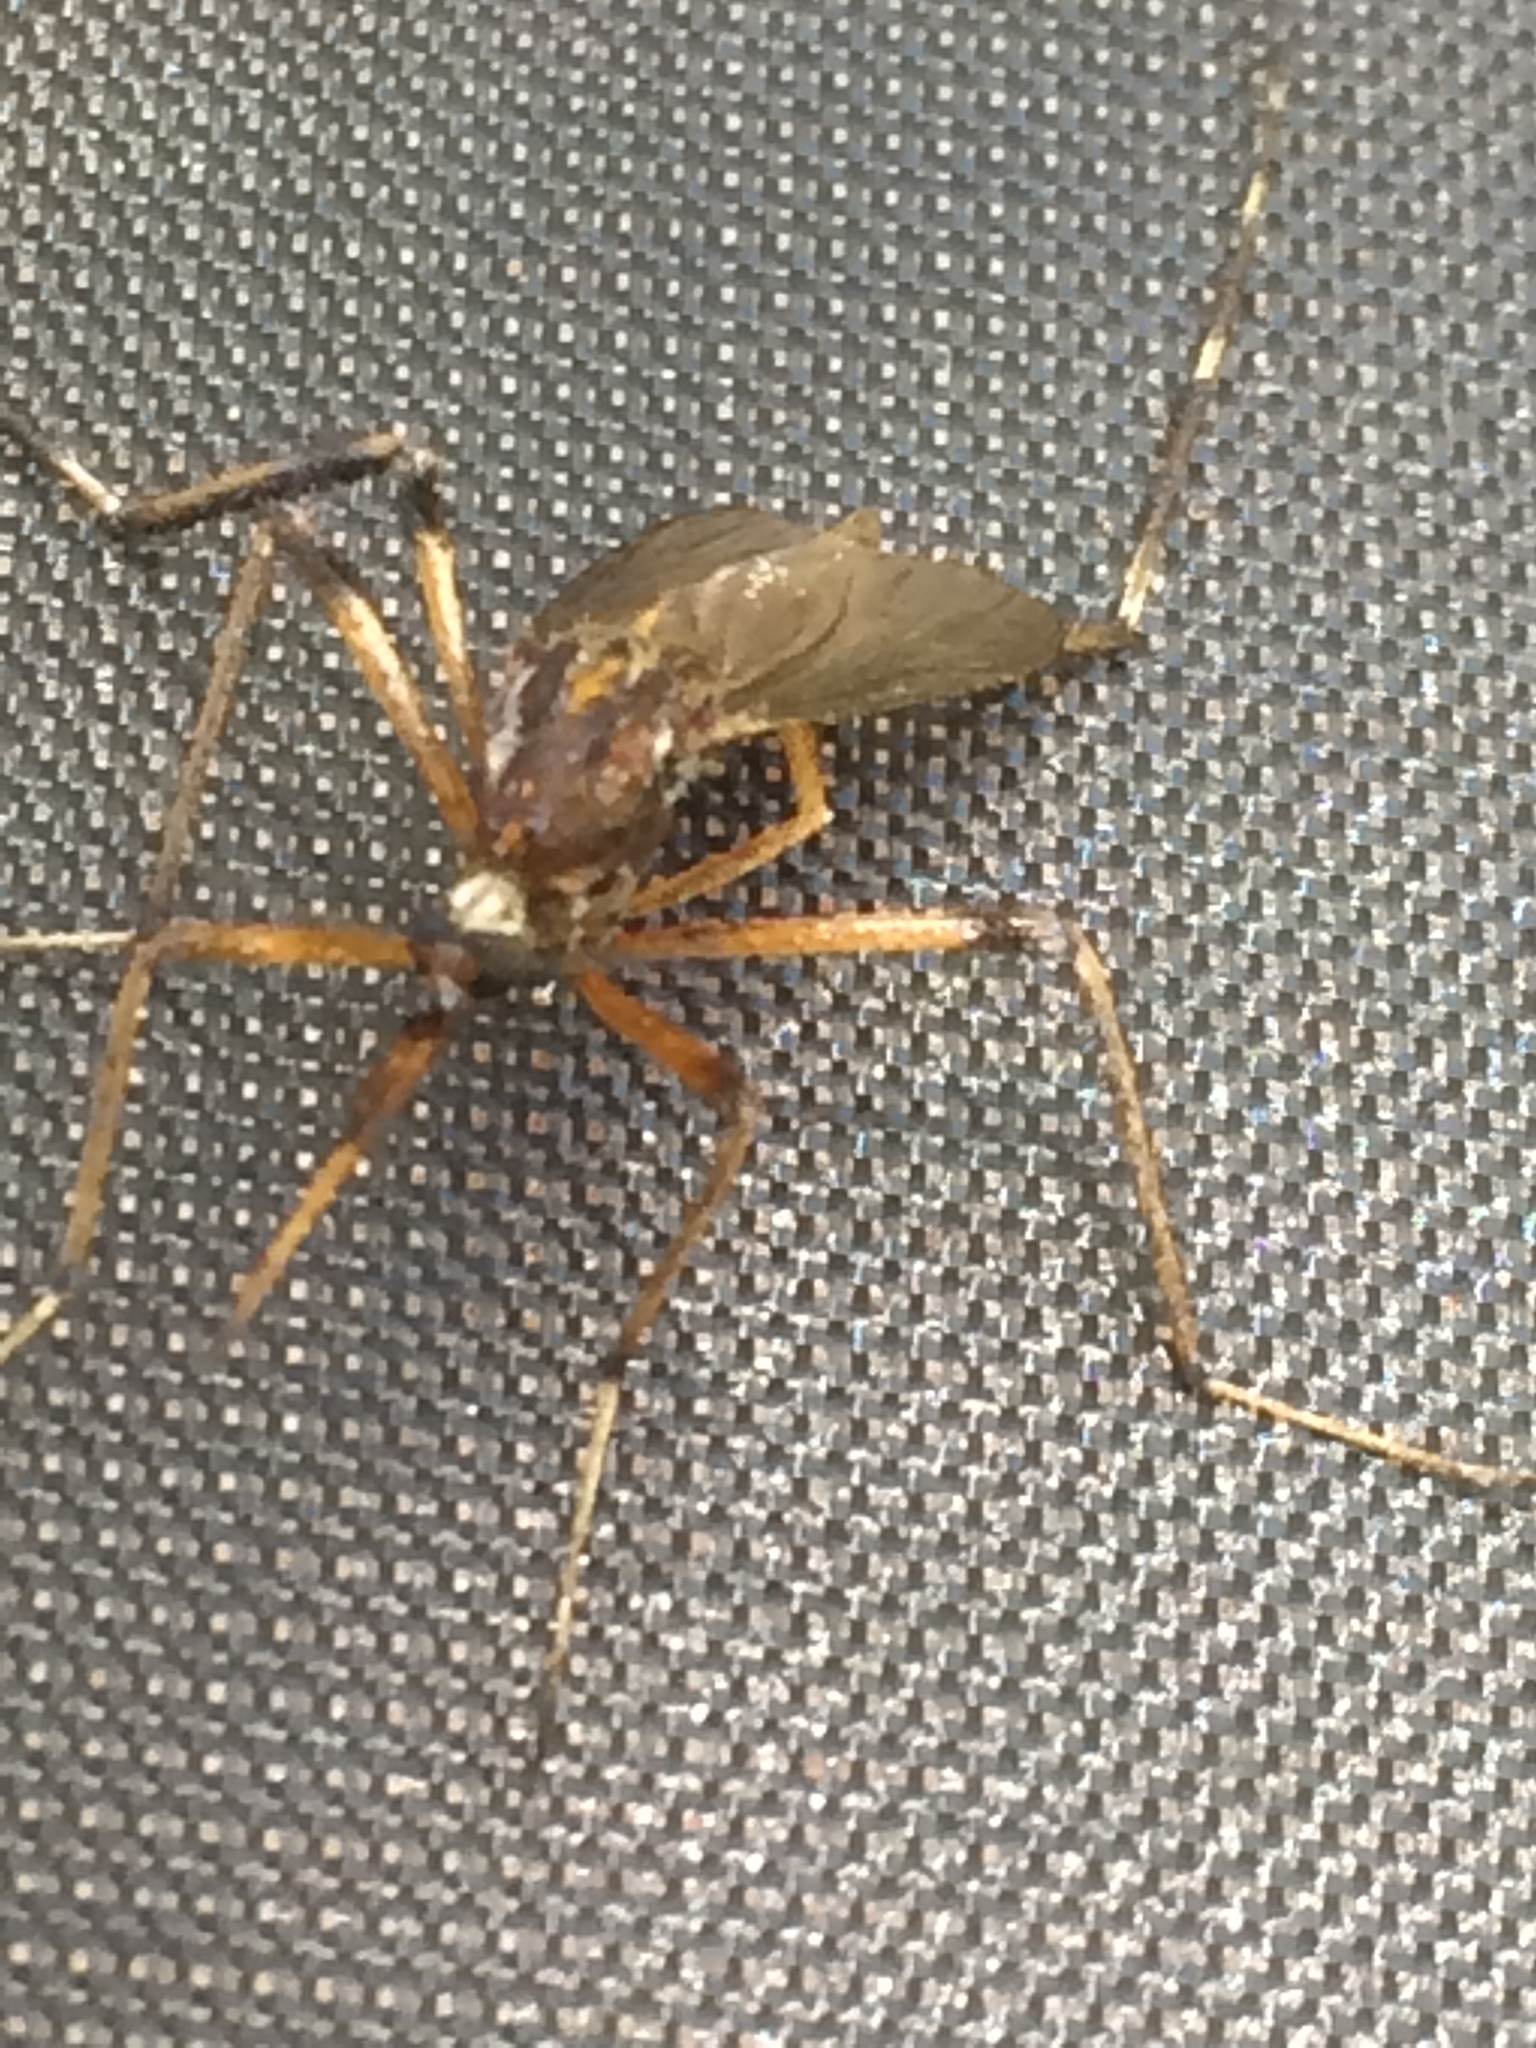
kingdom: Animalia
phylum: Arthropoda
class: Insecta
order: Diptera
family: Culicidae
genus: Psorophora
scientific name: Psorophora ciliata
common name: Gallinipper
